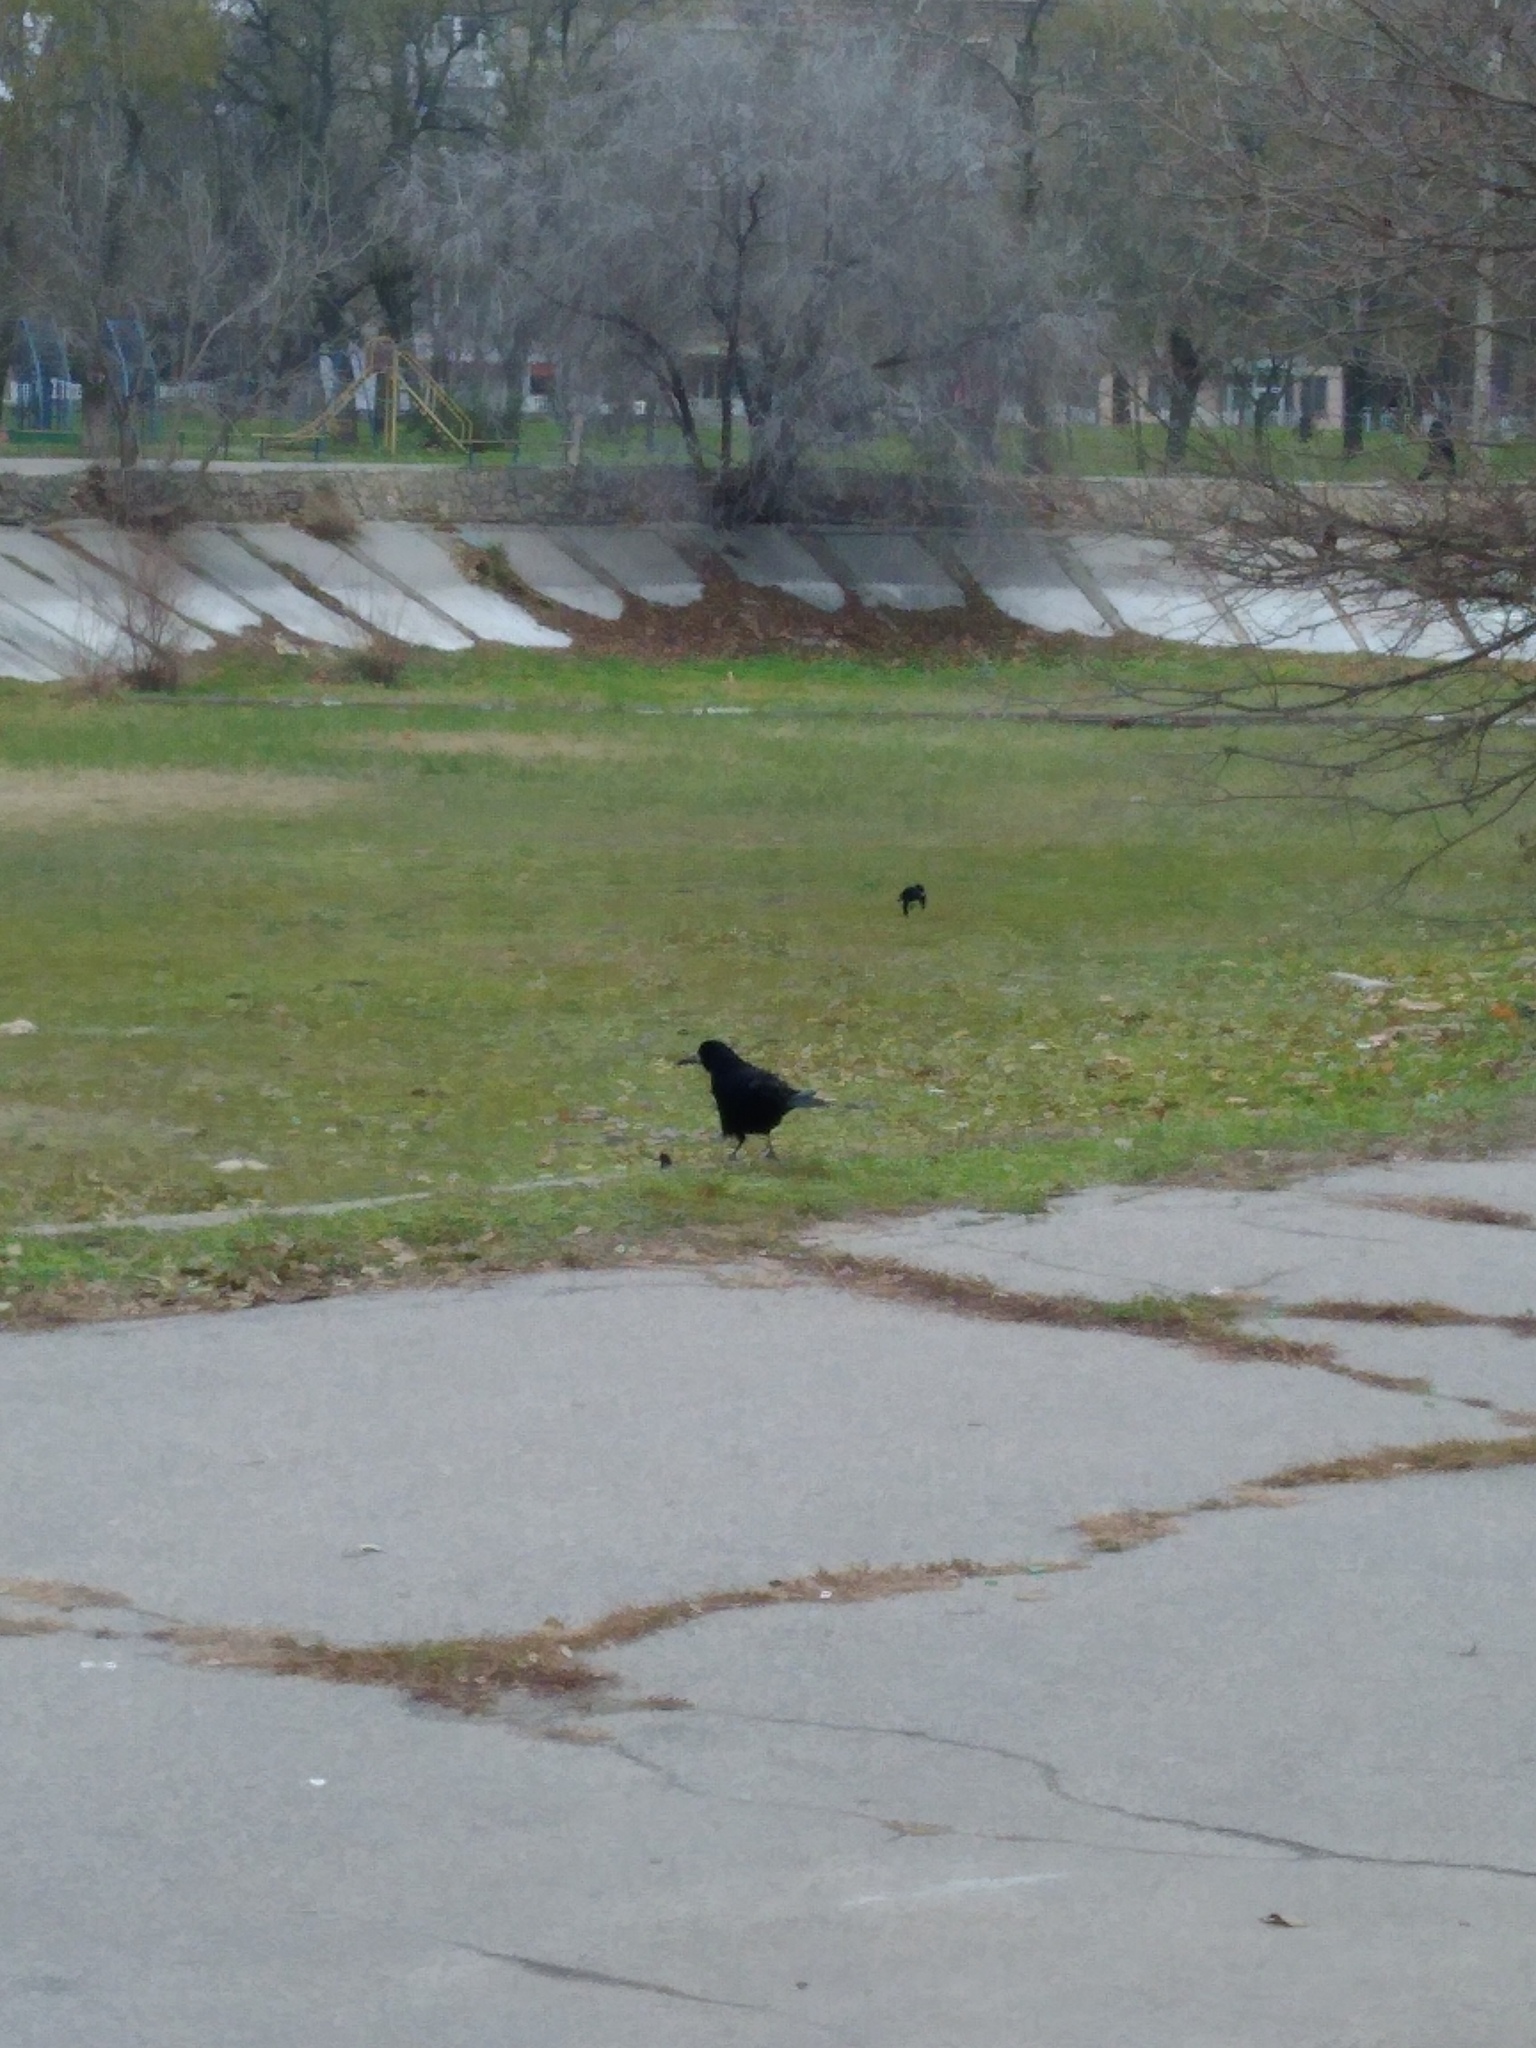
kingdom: Animalia
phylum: Chordata
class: Aves
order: Passeriformes
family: Corvidae
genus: Corvus
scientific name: Corvus frugilegus
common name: Rook
